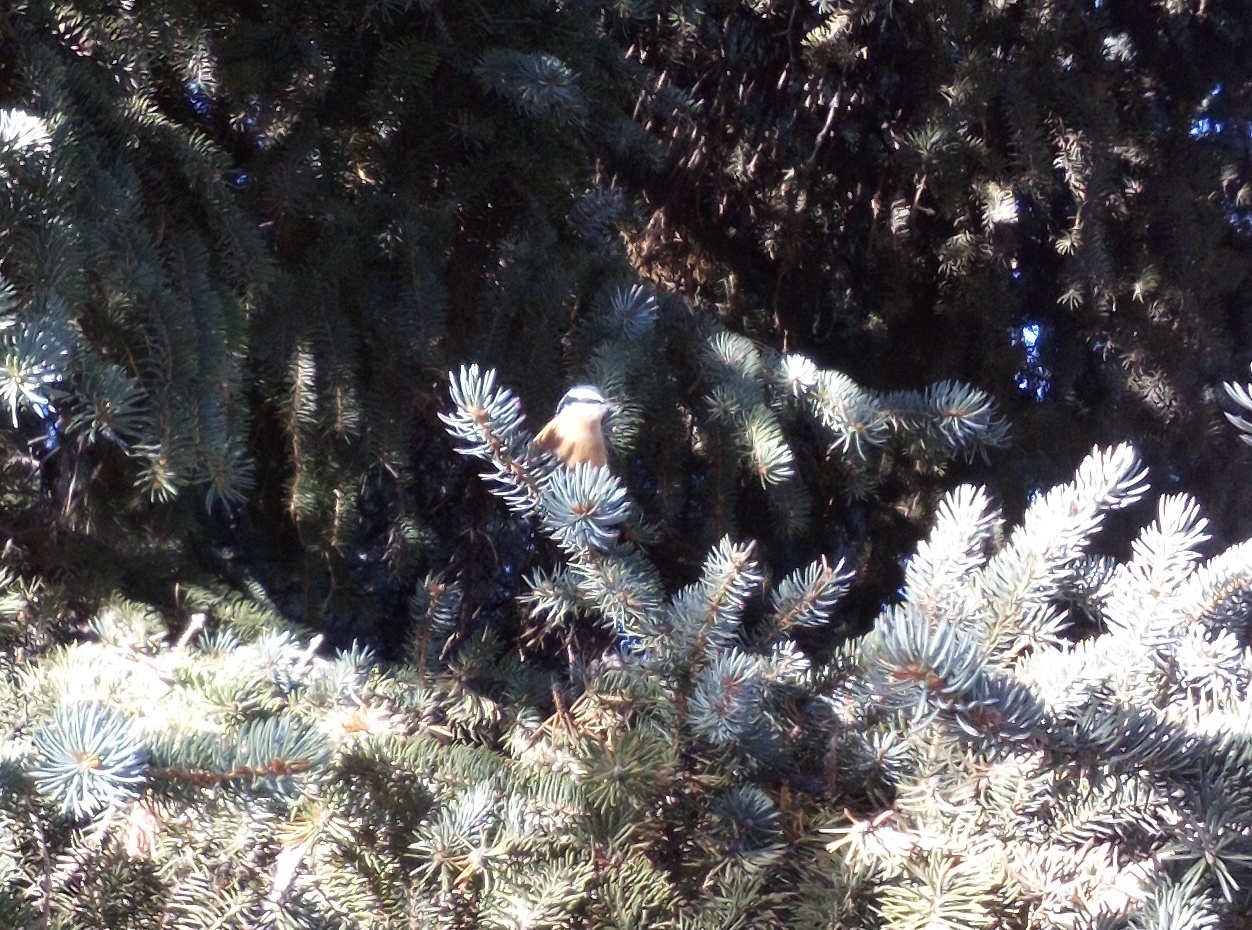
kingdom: Animalia
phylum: Chordata
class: Aves
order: Passeriformes
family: Sittidae
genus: Sitta
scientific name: Sitta canadensis
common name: Red-breasted nuthatch
